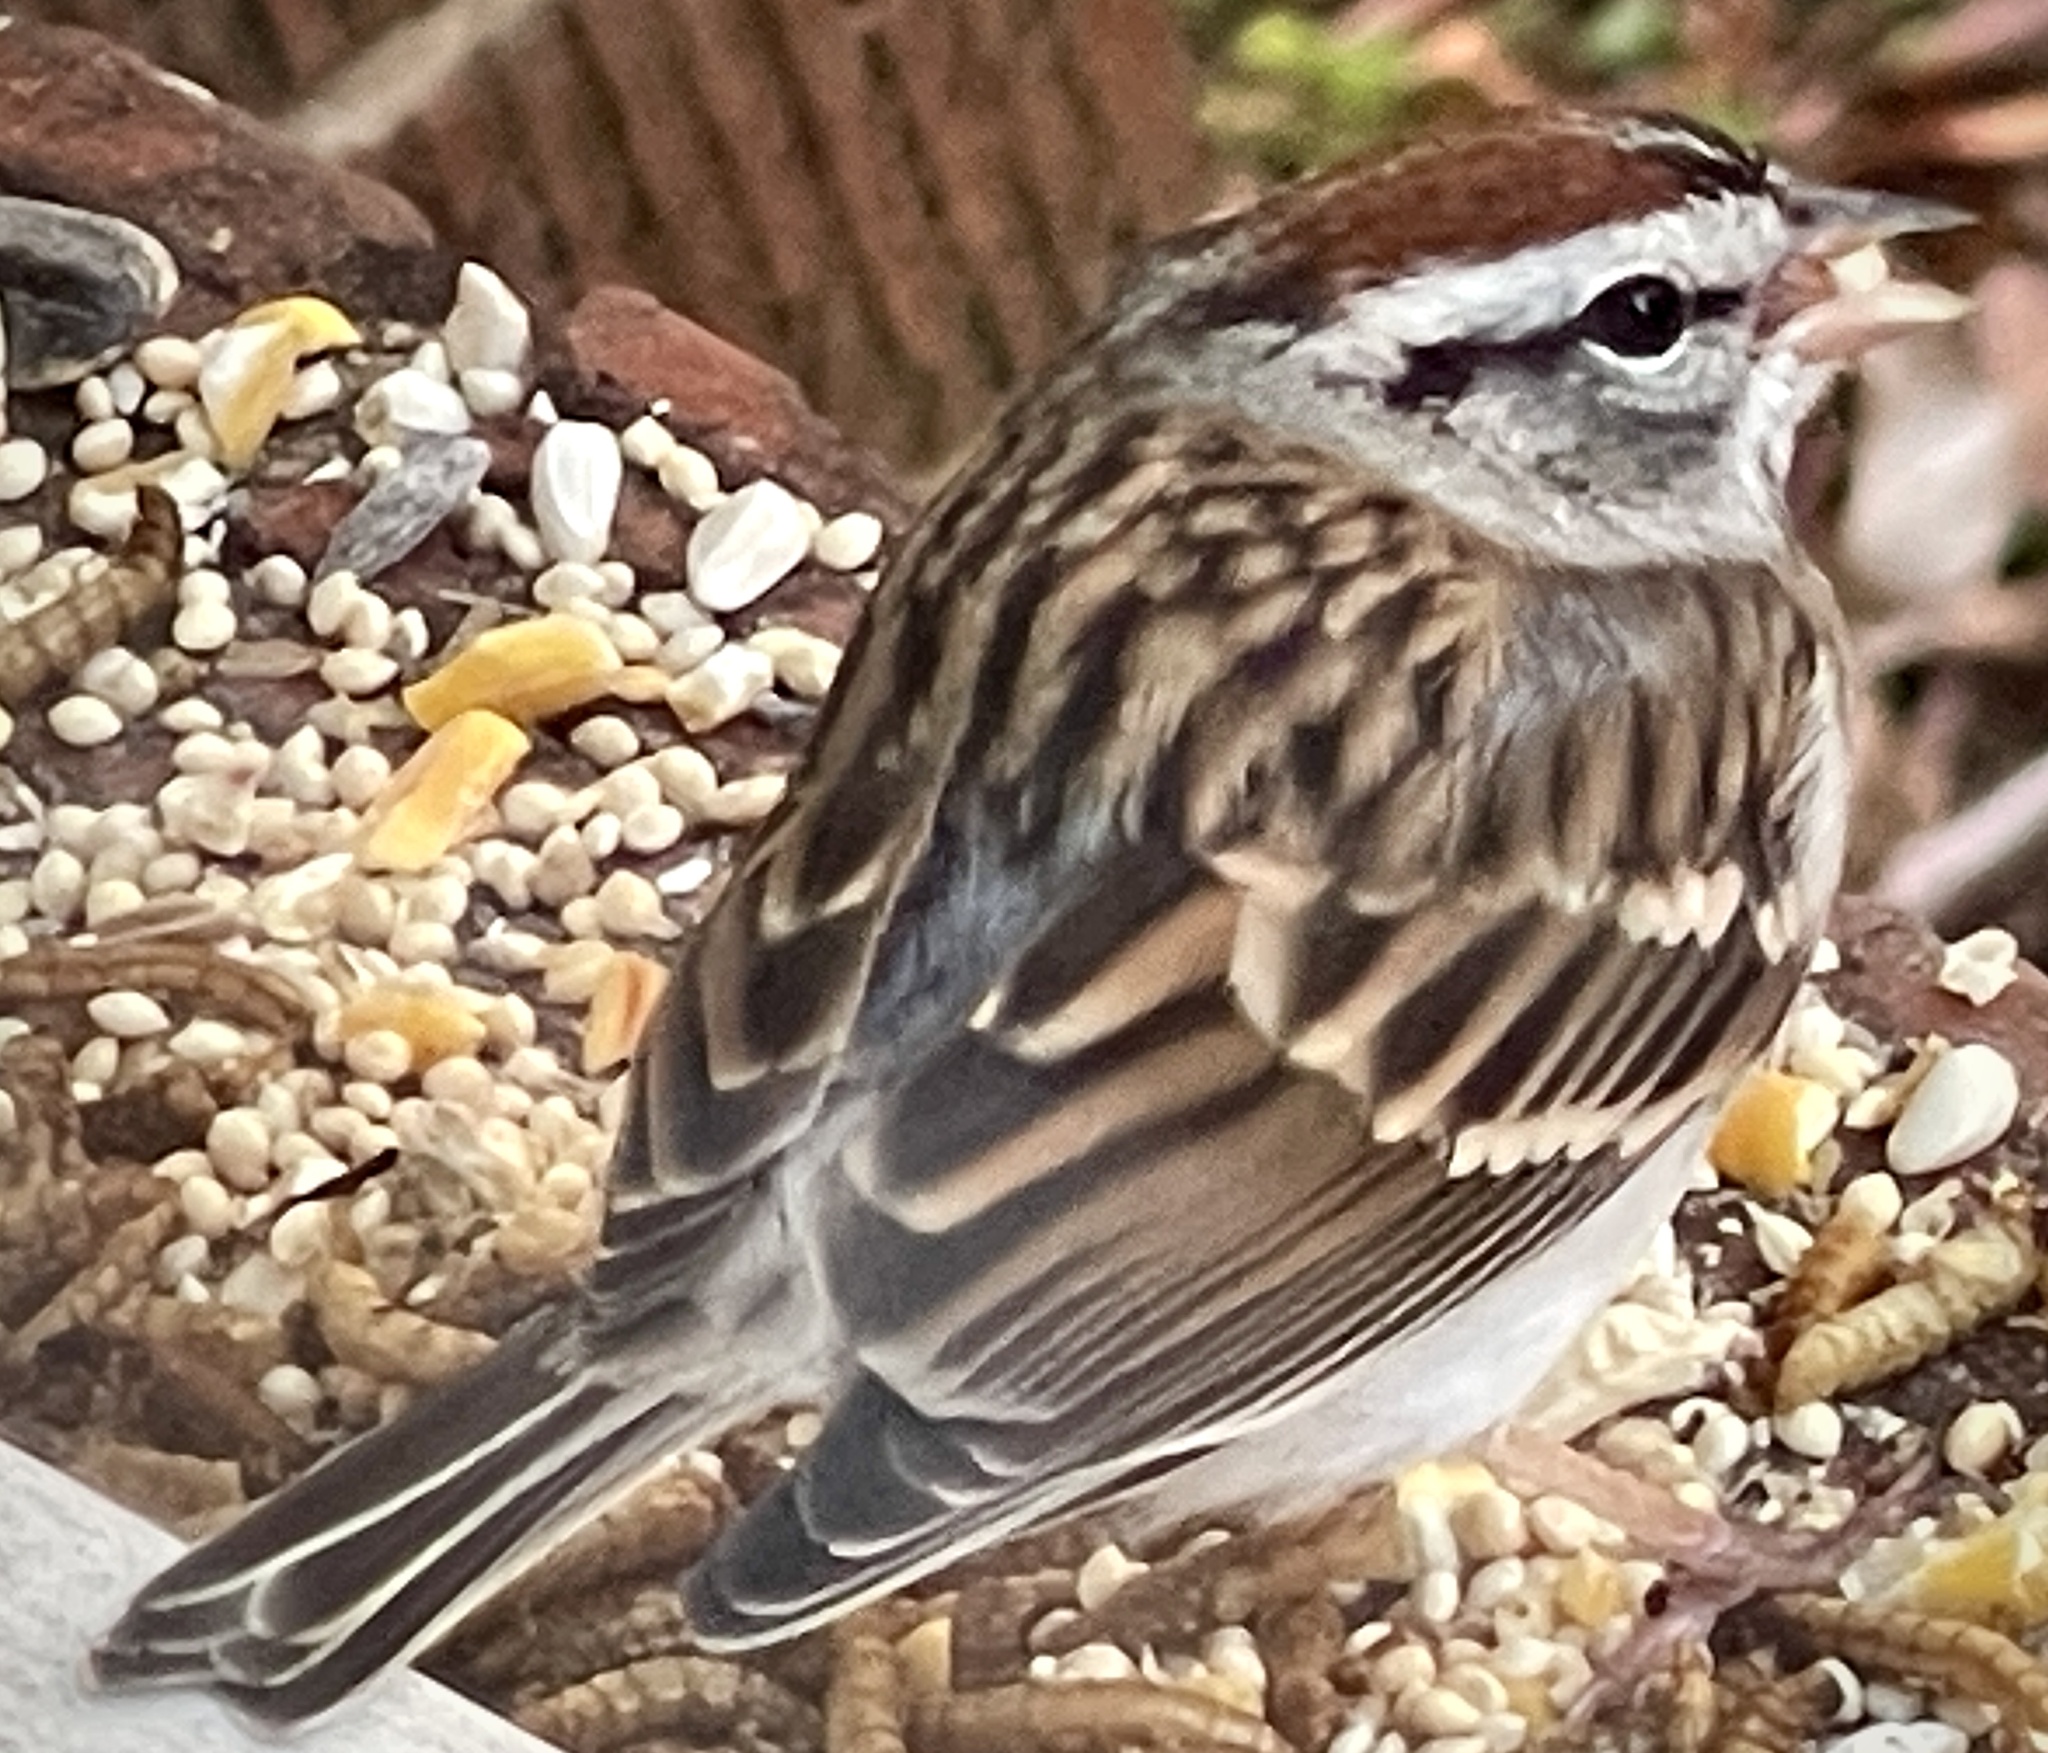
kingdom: Animalia
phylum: Chordata
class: Aves
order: Passeriformes
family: Passerellidae
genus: Spizella
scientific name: Spizella passerina
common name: Chipping sparrow
